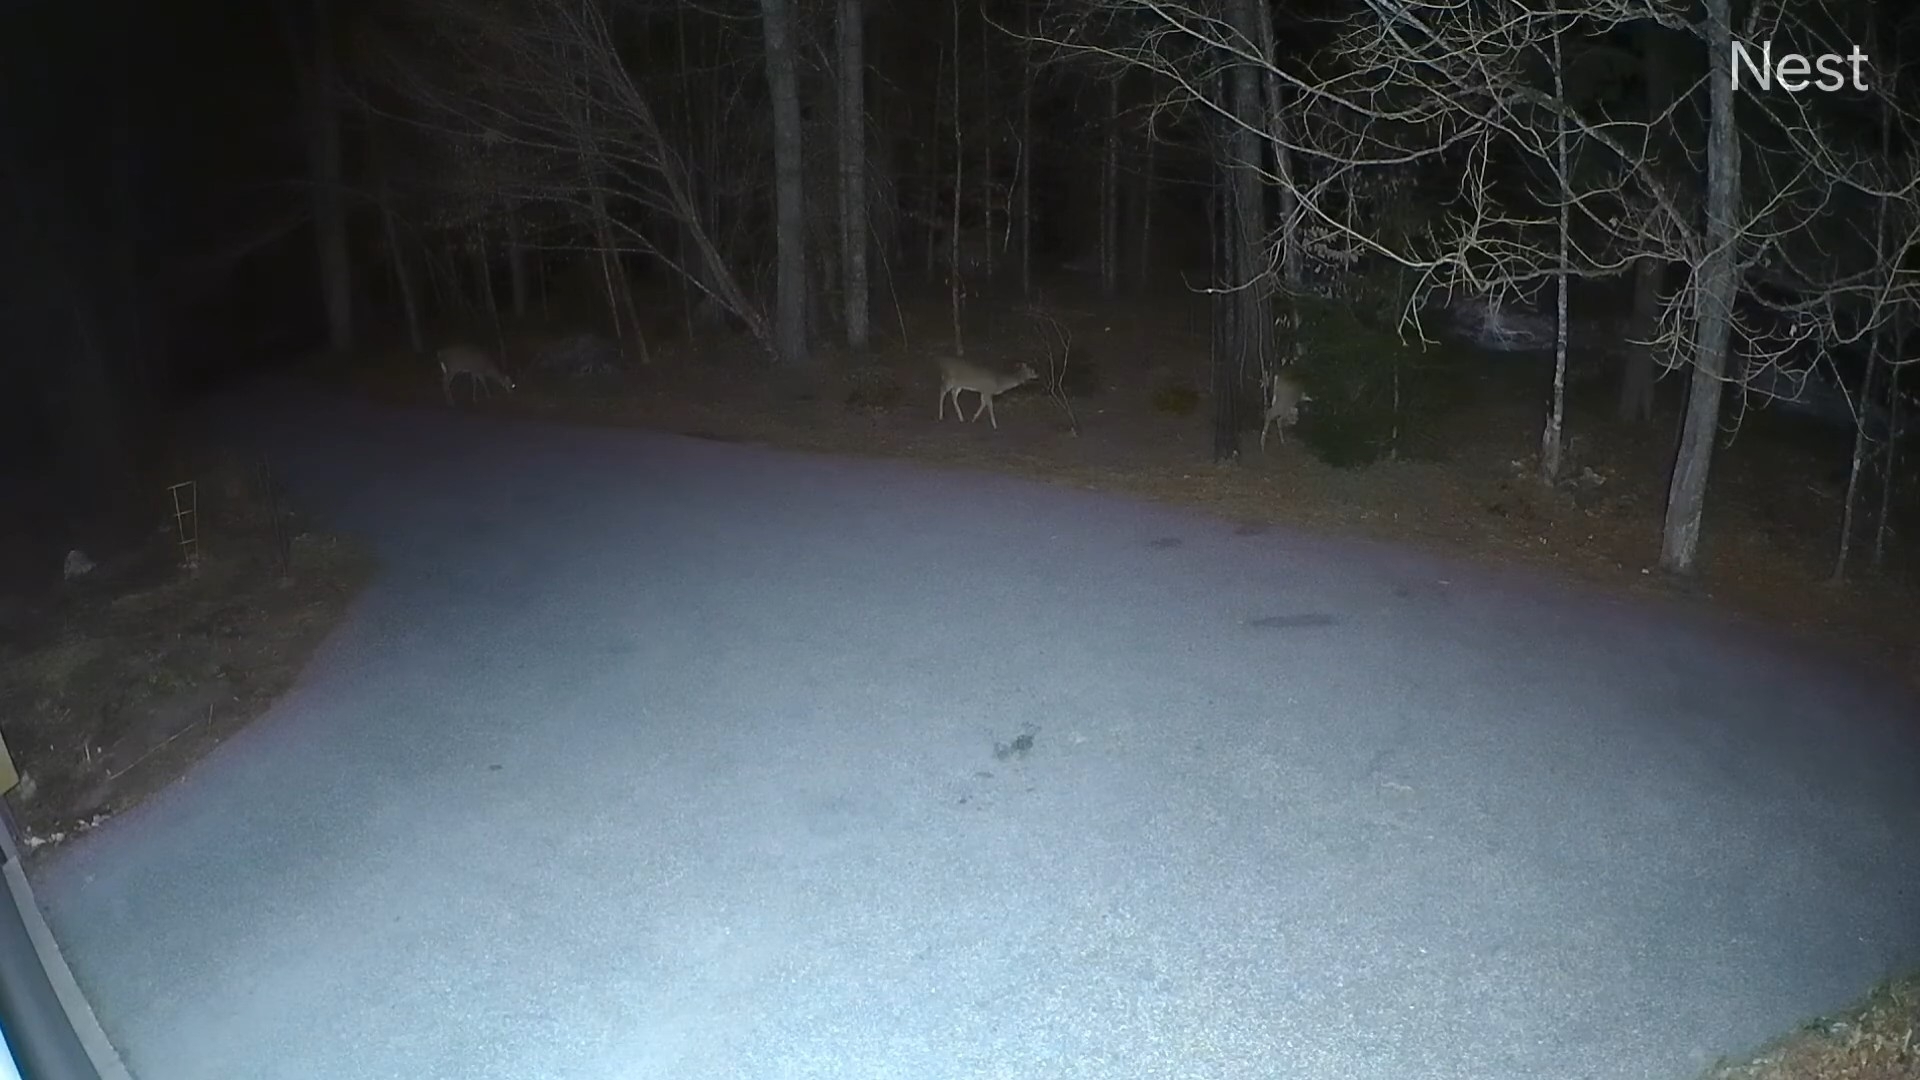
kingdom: Animalia
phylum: Chordata
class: Mammalia
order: Artiodactyla
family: Cervidae
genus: Odocoileus
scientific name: Odocoileus virginianus
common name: White-tailed deer
